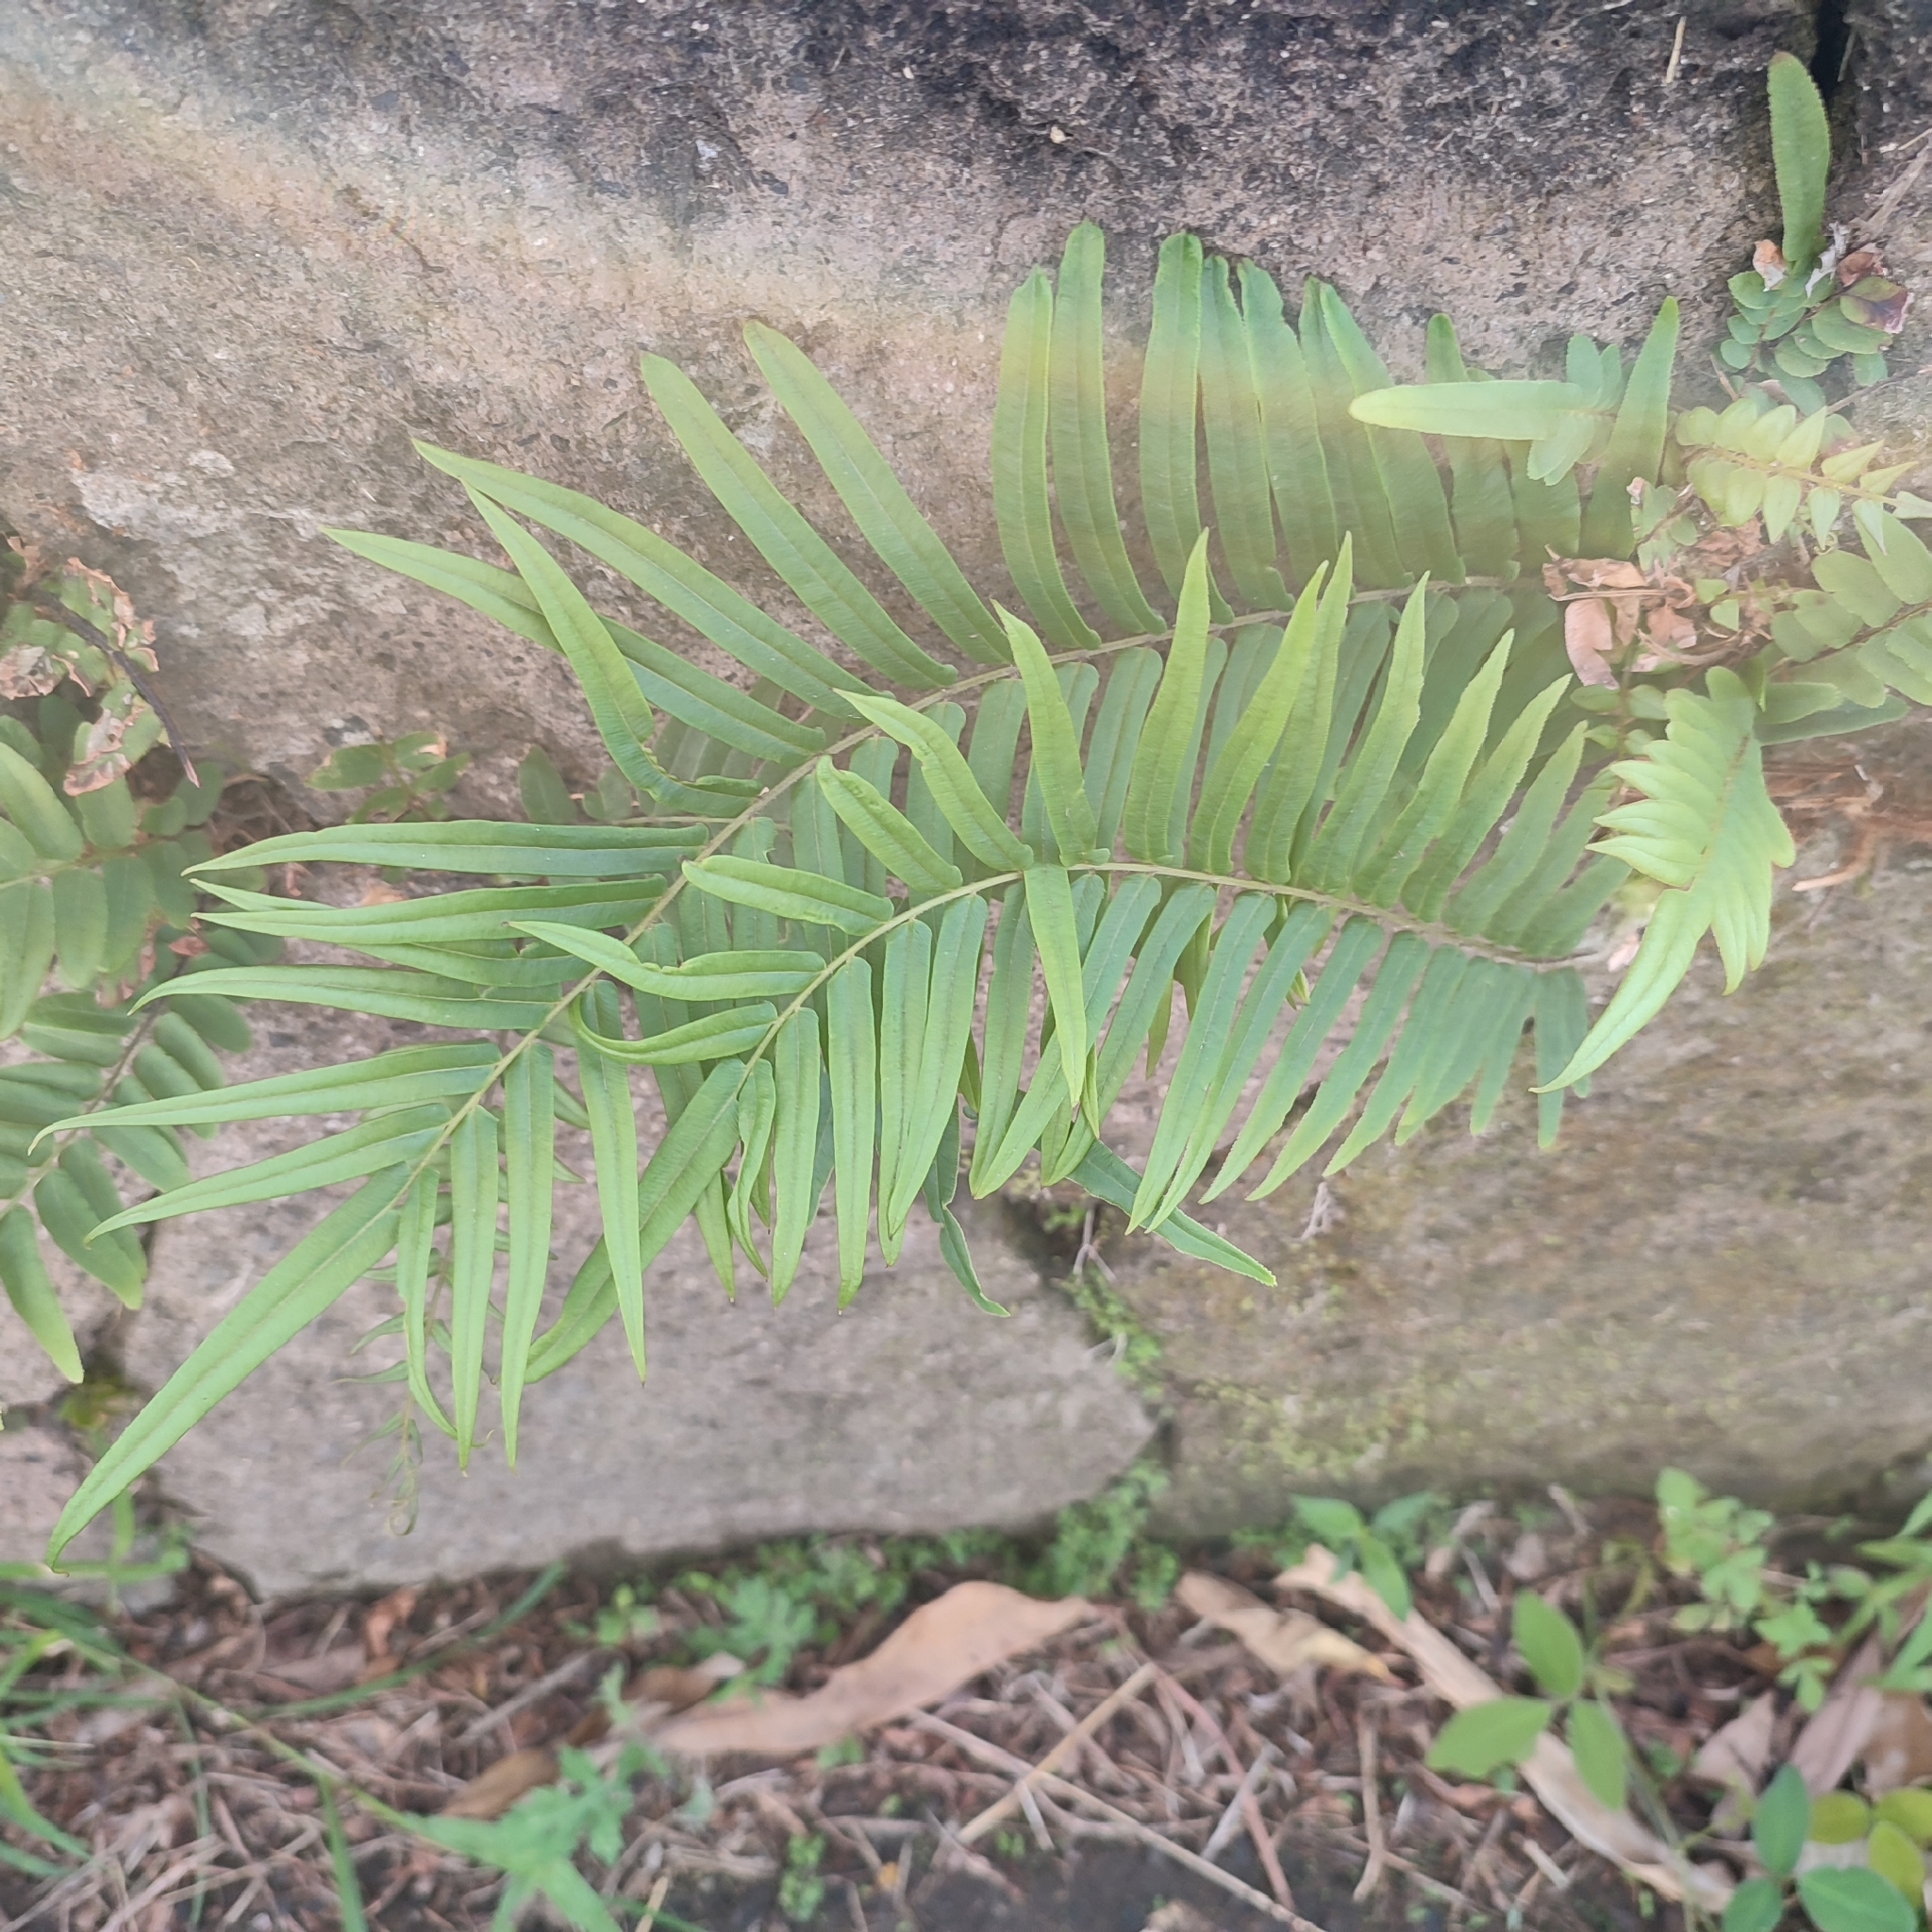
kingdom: Plantae
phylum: Tracheophyta
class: Polypodiopsida
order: Polypodiales
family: Pteridaceae
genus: Pteris
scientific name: Pteris vittata
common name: Ladder brake
